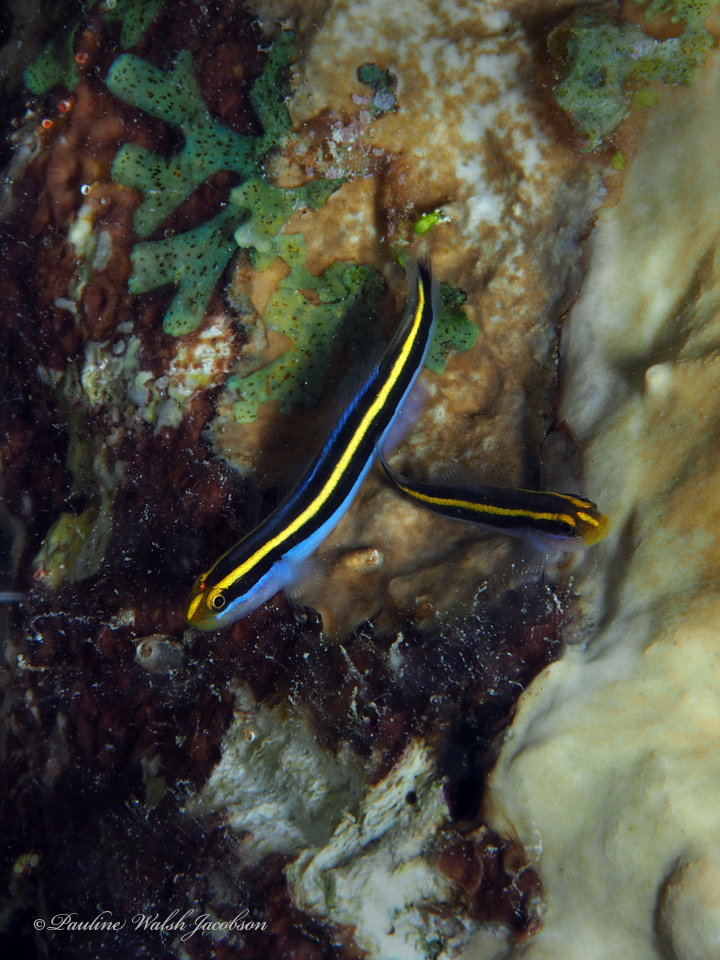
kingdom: Animalia
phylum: Chordata
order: Perciformes
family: Gobiidae
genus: Elacatinus
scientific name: Elacatinus randalli
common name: Yellownose goby
